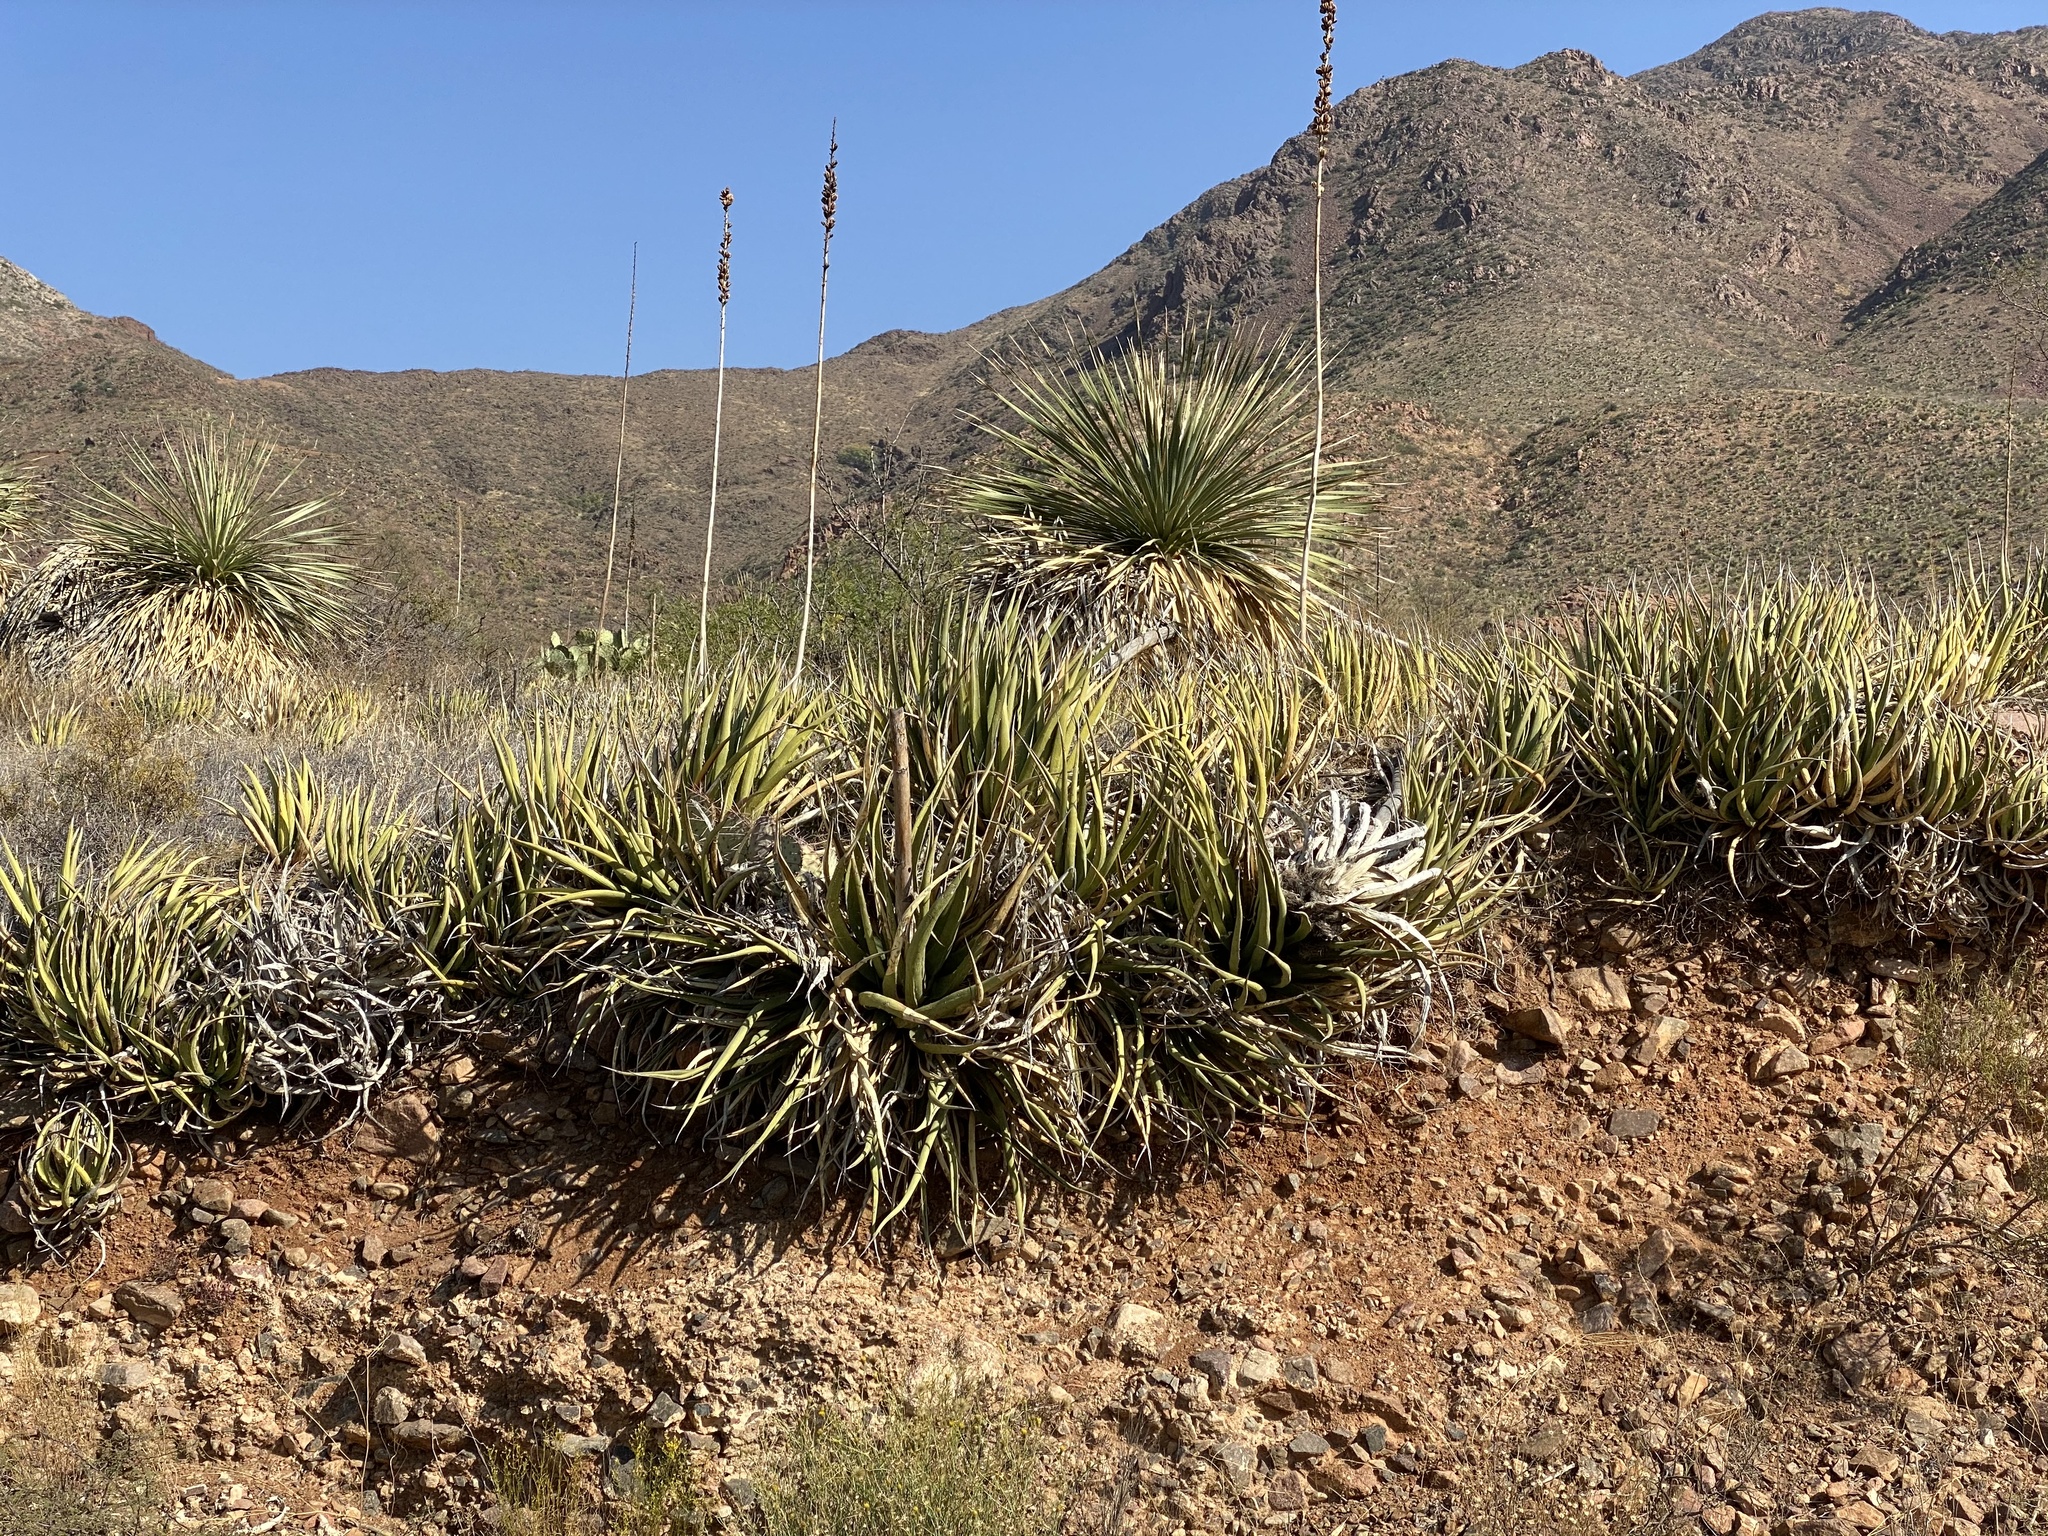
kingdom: Plantae
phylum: Tracheophyta
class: Liliopsida
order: Asparagales
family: Asparagaceae
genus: Agave
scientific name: Agave lechuguilla
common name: Lecheguilla agave
